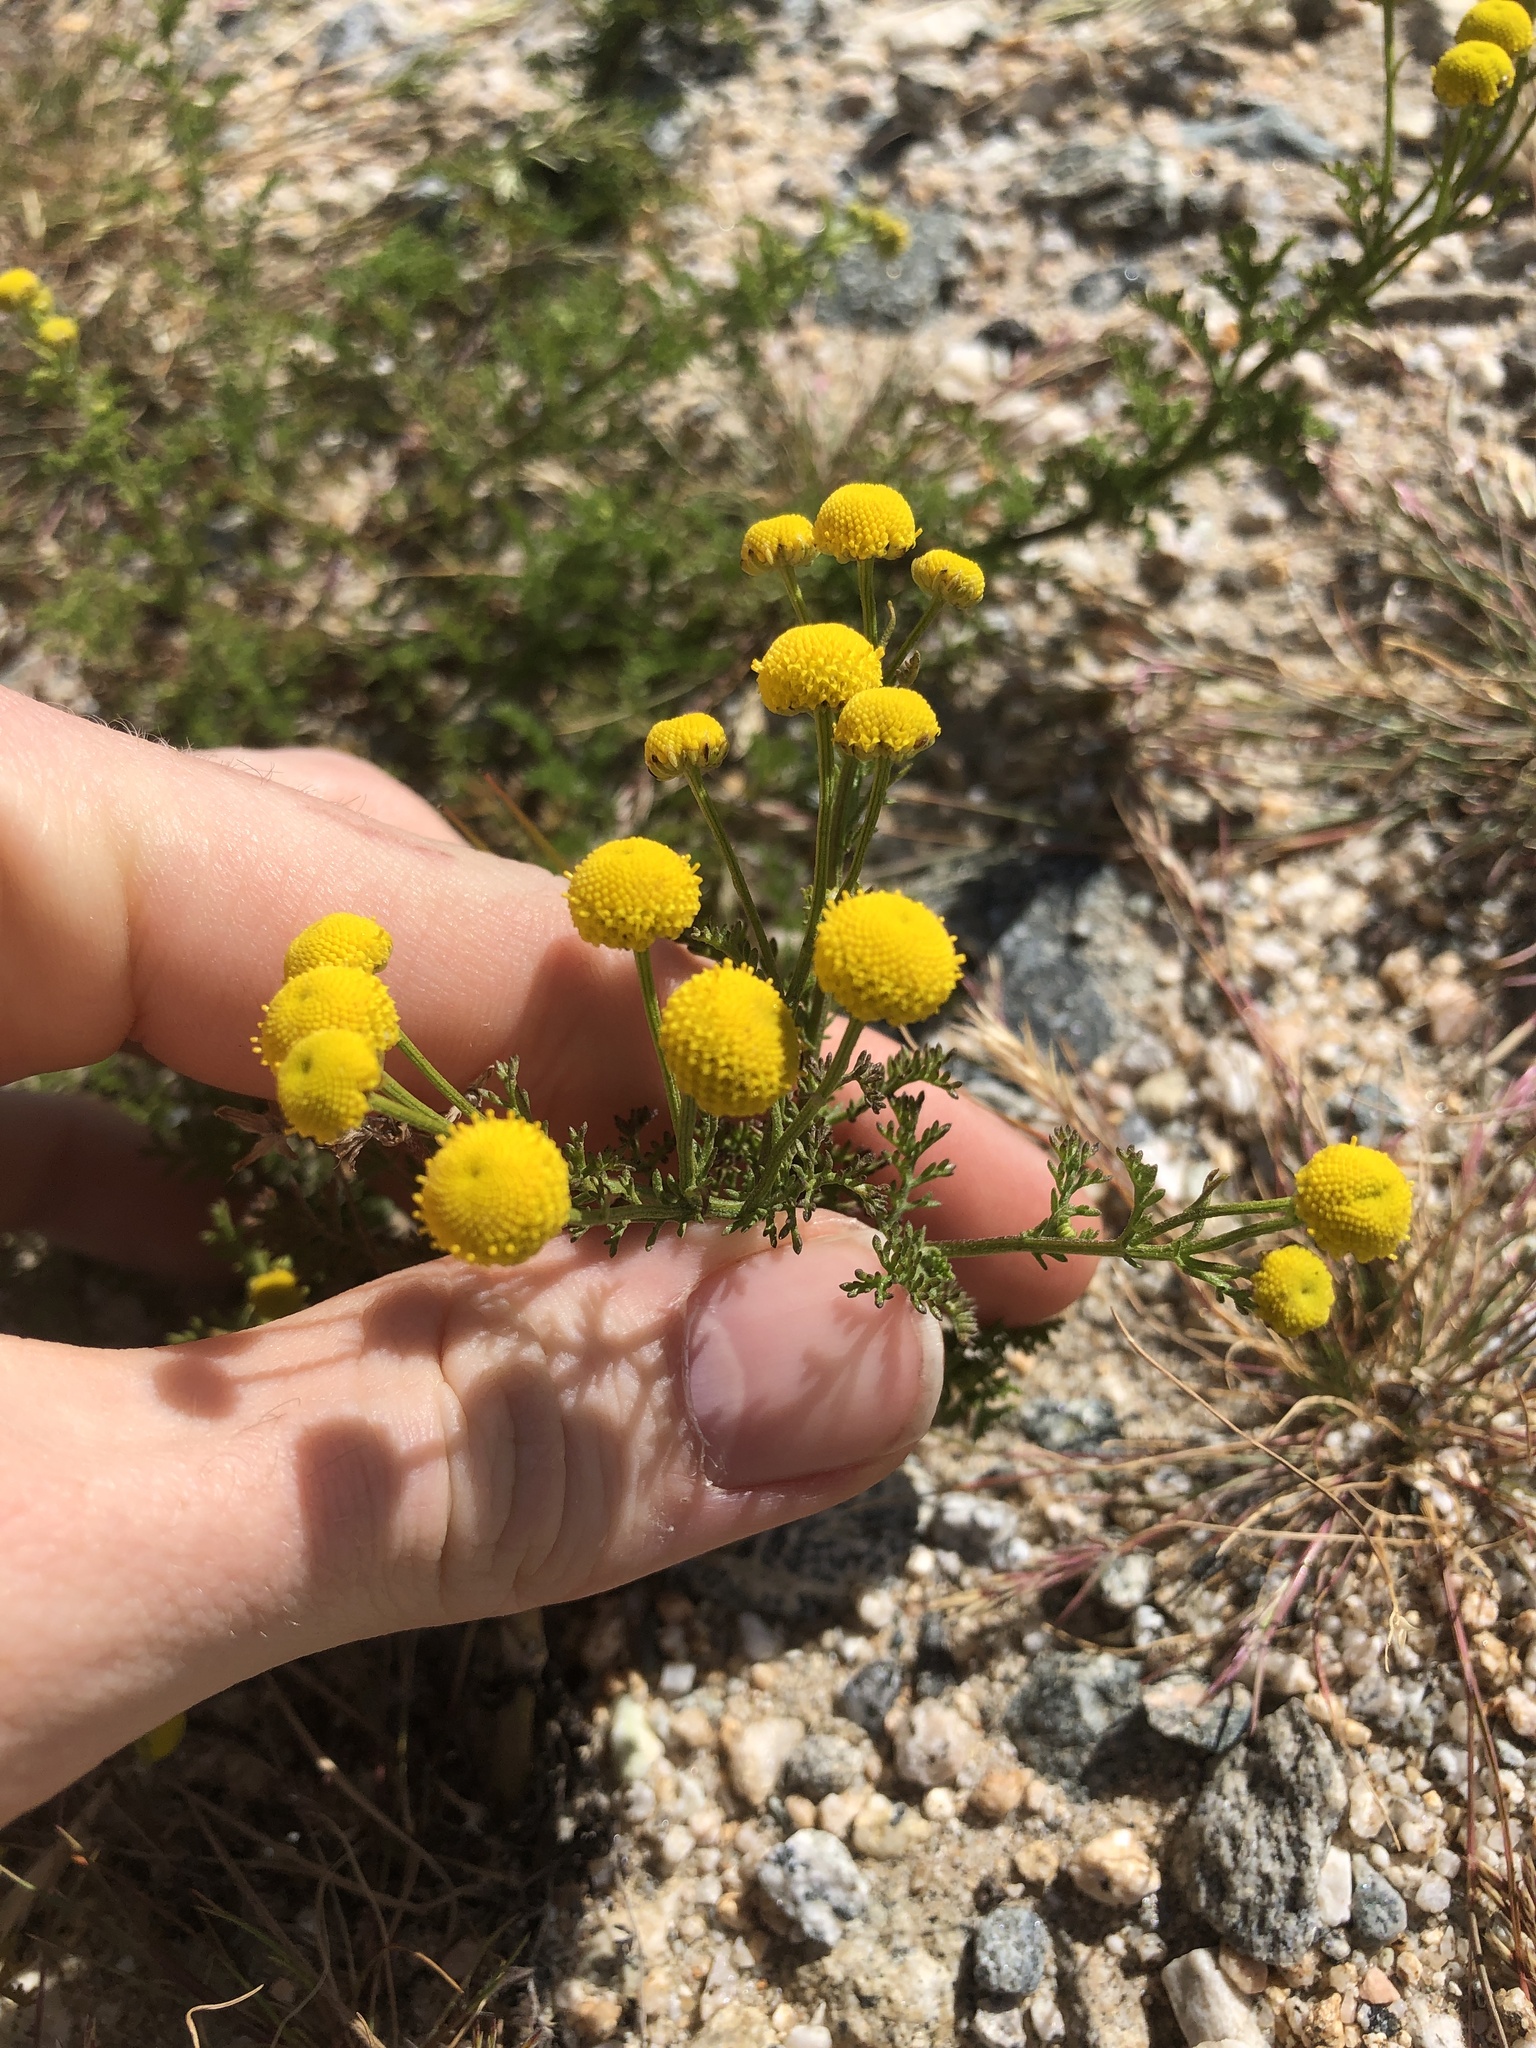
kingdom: Plantae
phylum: Tracheophyta
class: Magnoliopsida
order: Asterales
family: Asteraceae
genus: Oncosiphon
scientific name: Oncosiphon pilulifer
